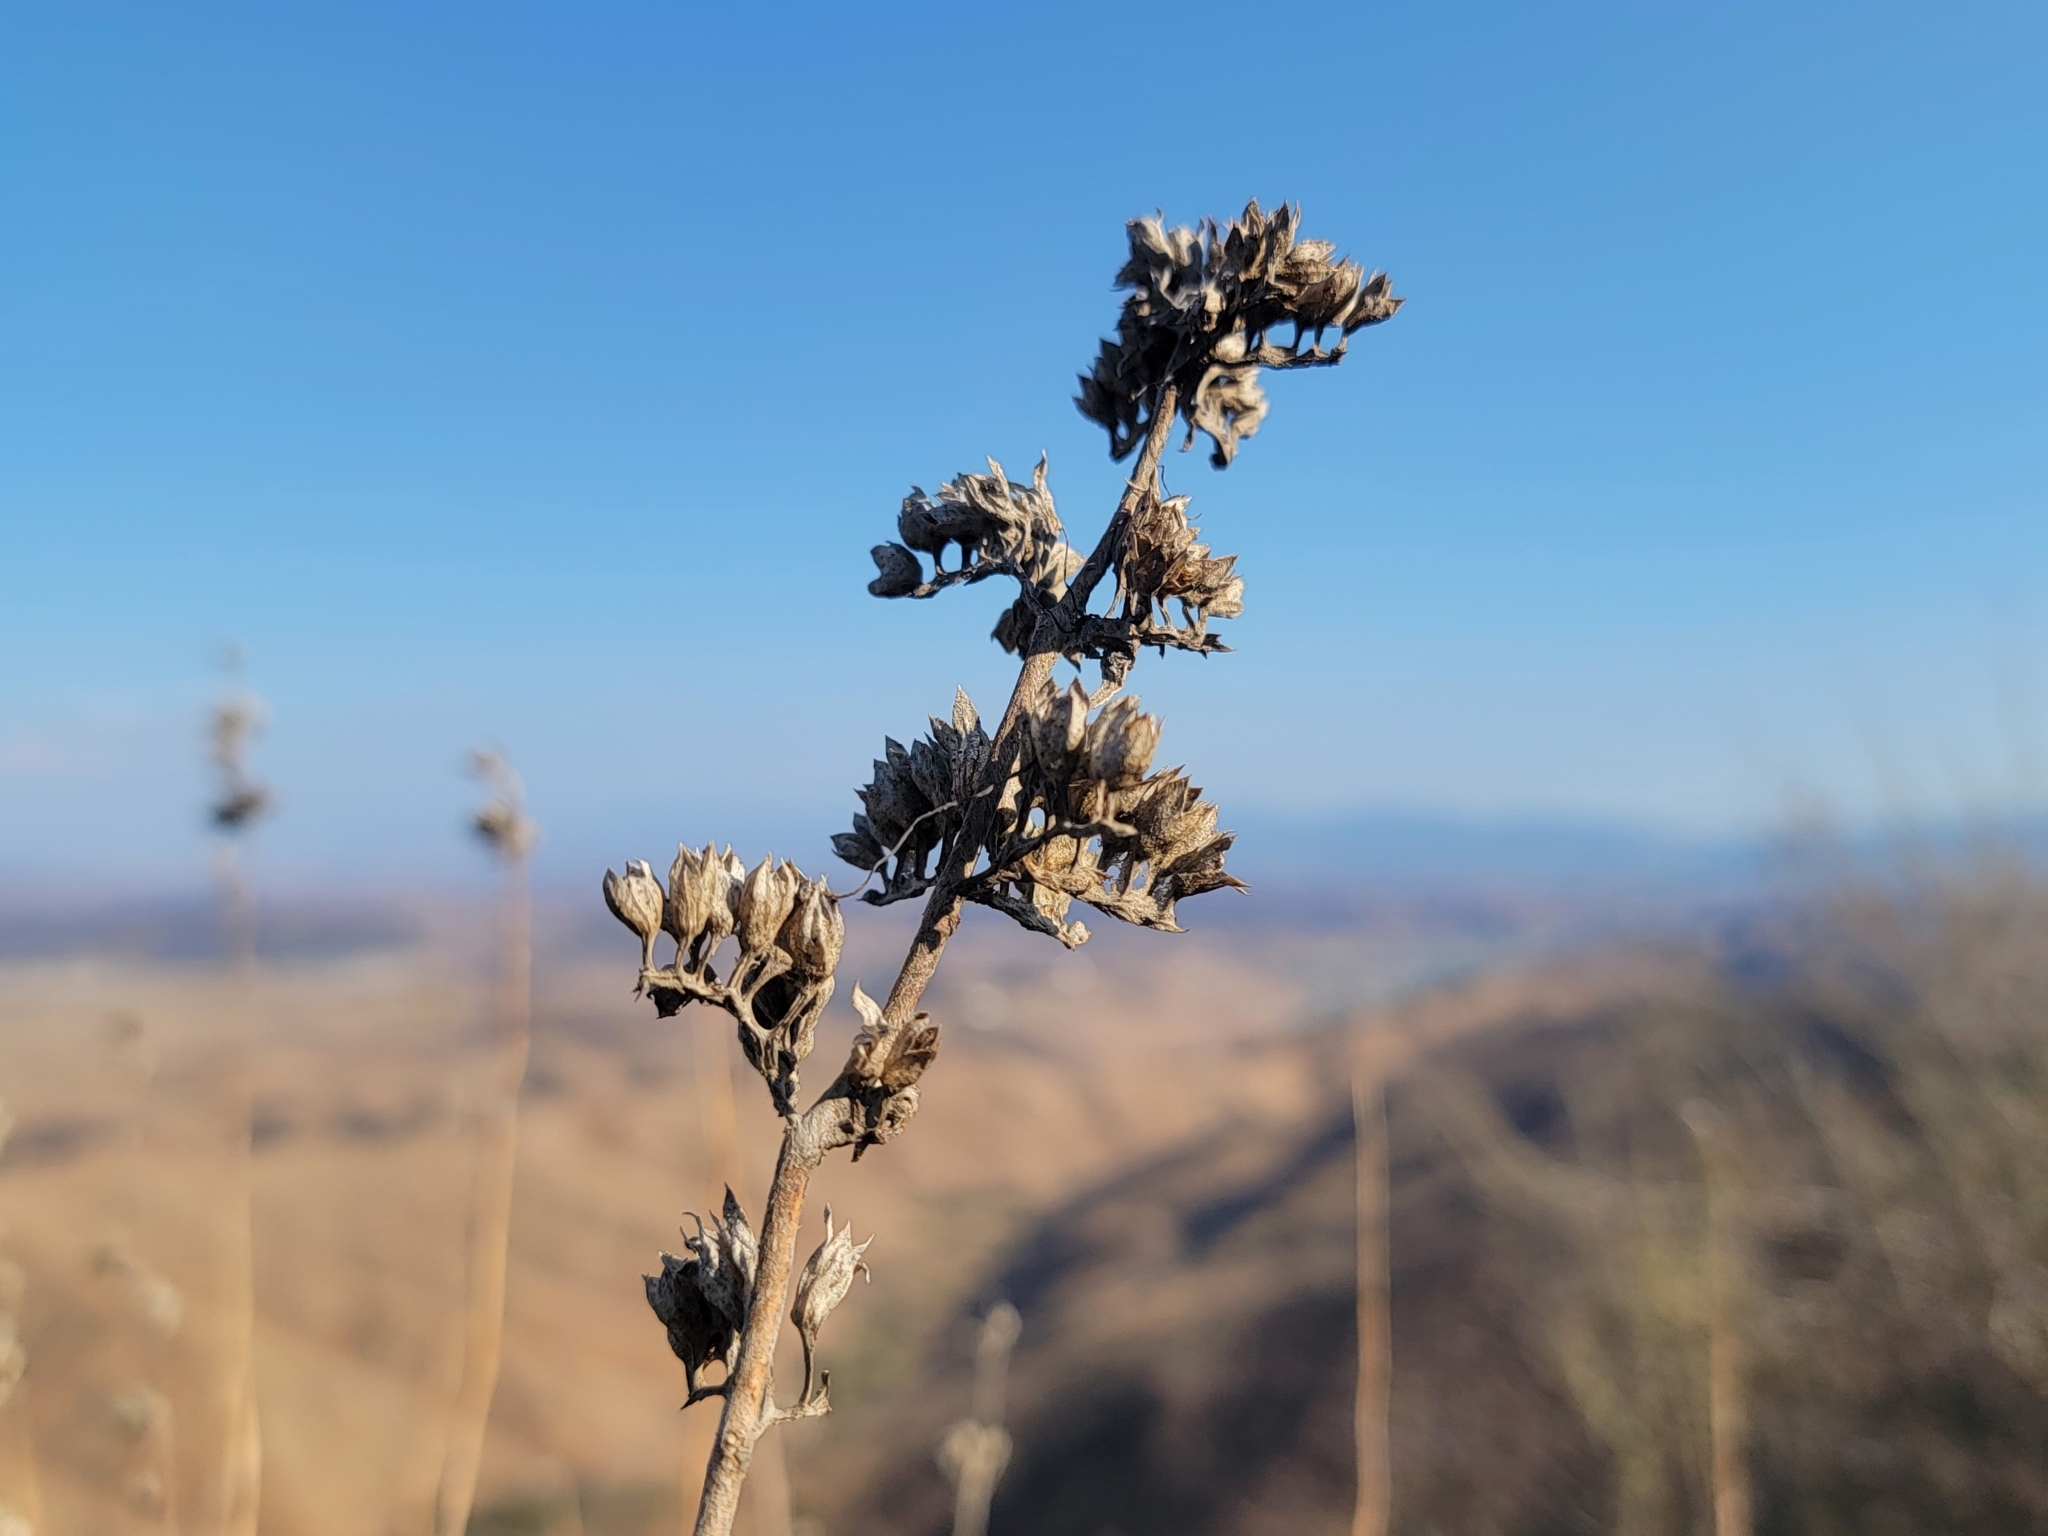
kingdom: Plantae
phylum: Tracheophyta
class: Magnoliopsida
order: Lamiales
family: Lamiaceae
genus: Trichostema
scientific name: Trichostema lanatum
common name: Woolly bluecurls
